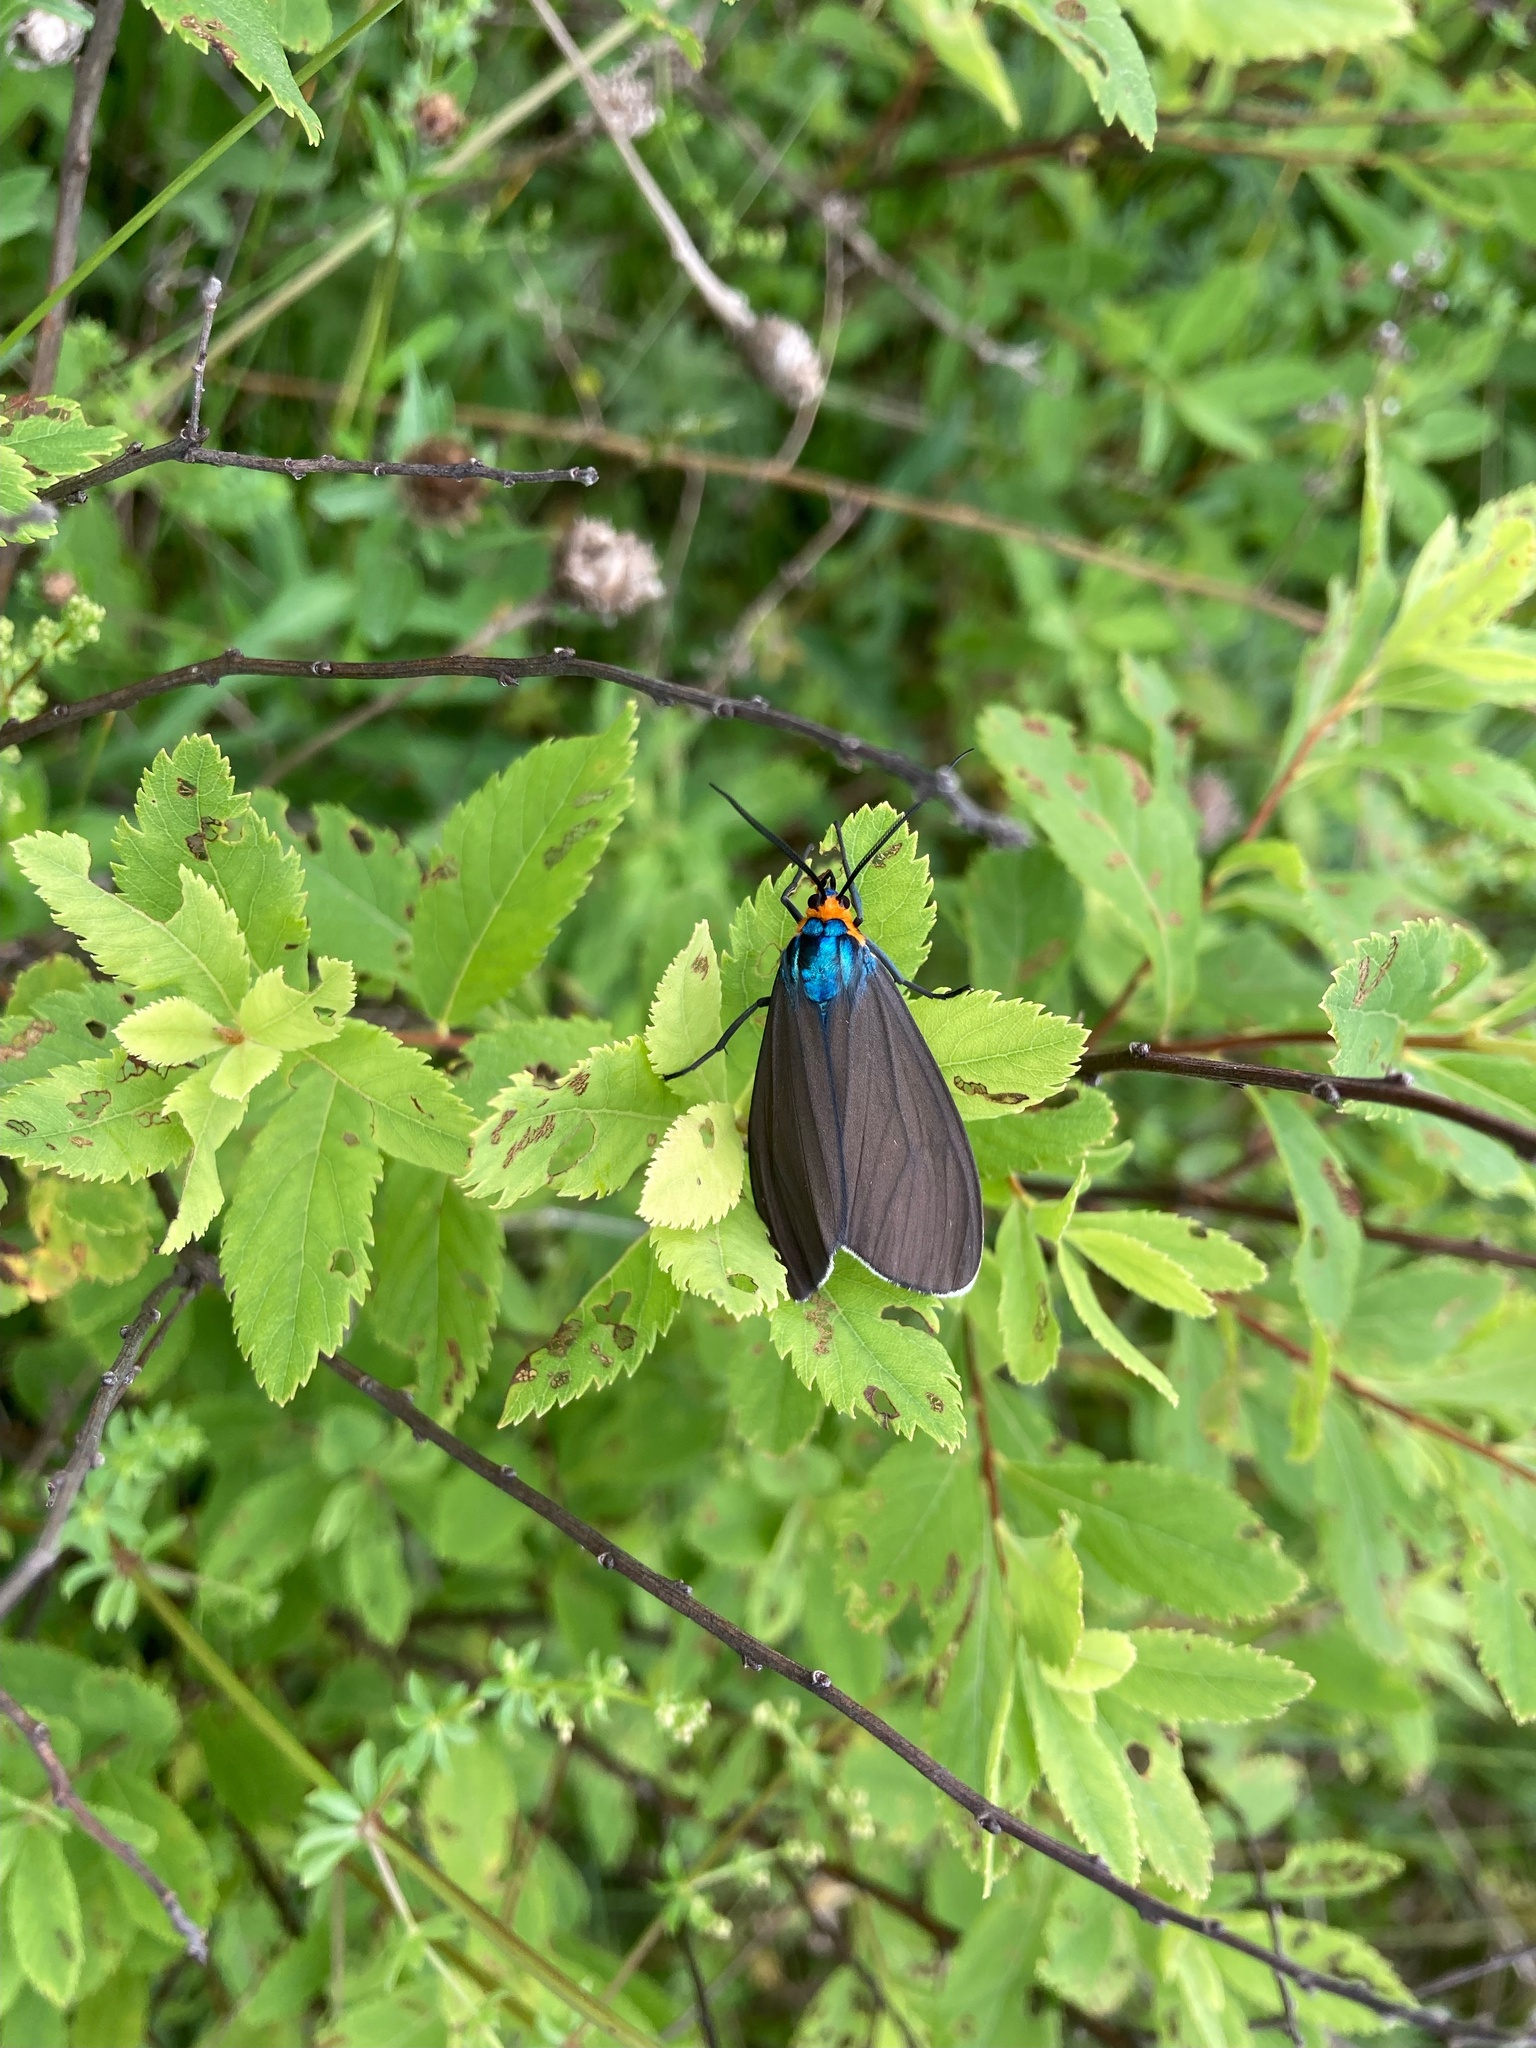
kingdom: Animalia
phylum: Arthropoda
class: Insecta
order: Lepidoptera
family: Erebidae
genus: Ctenucha
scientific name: Ctenucha virginica
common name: Virginia ctenucha moth
